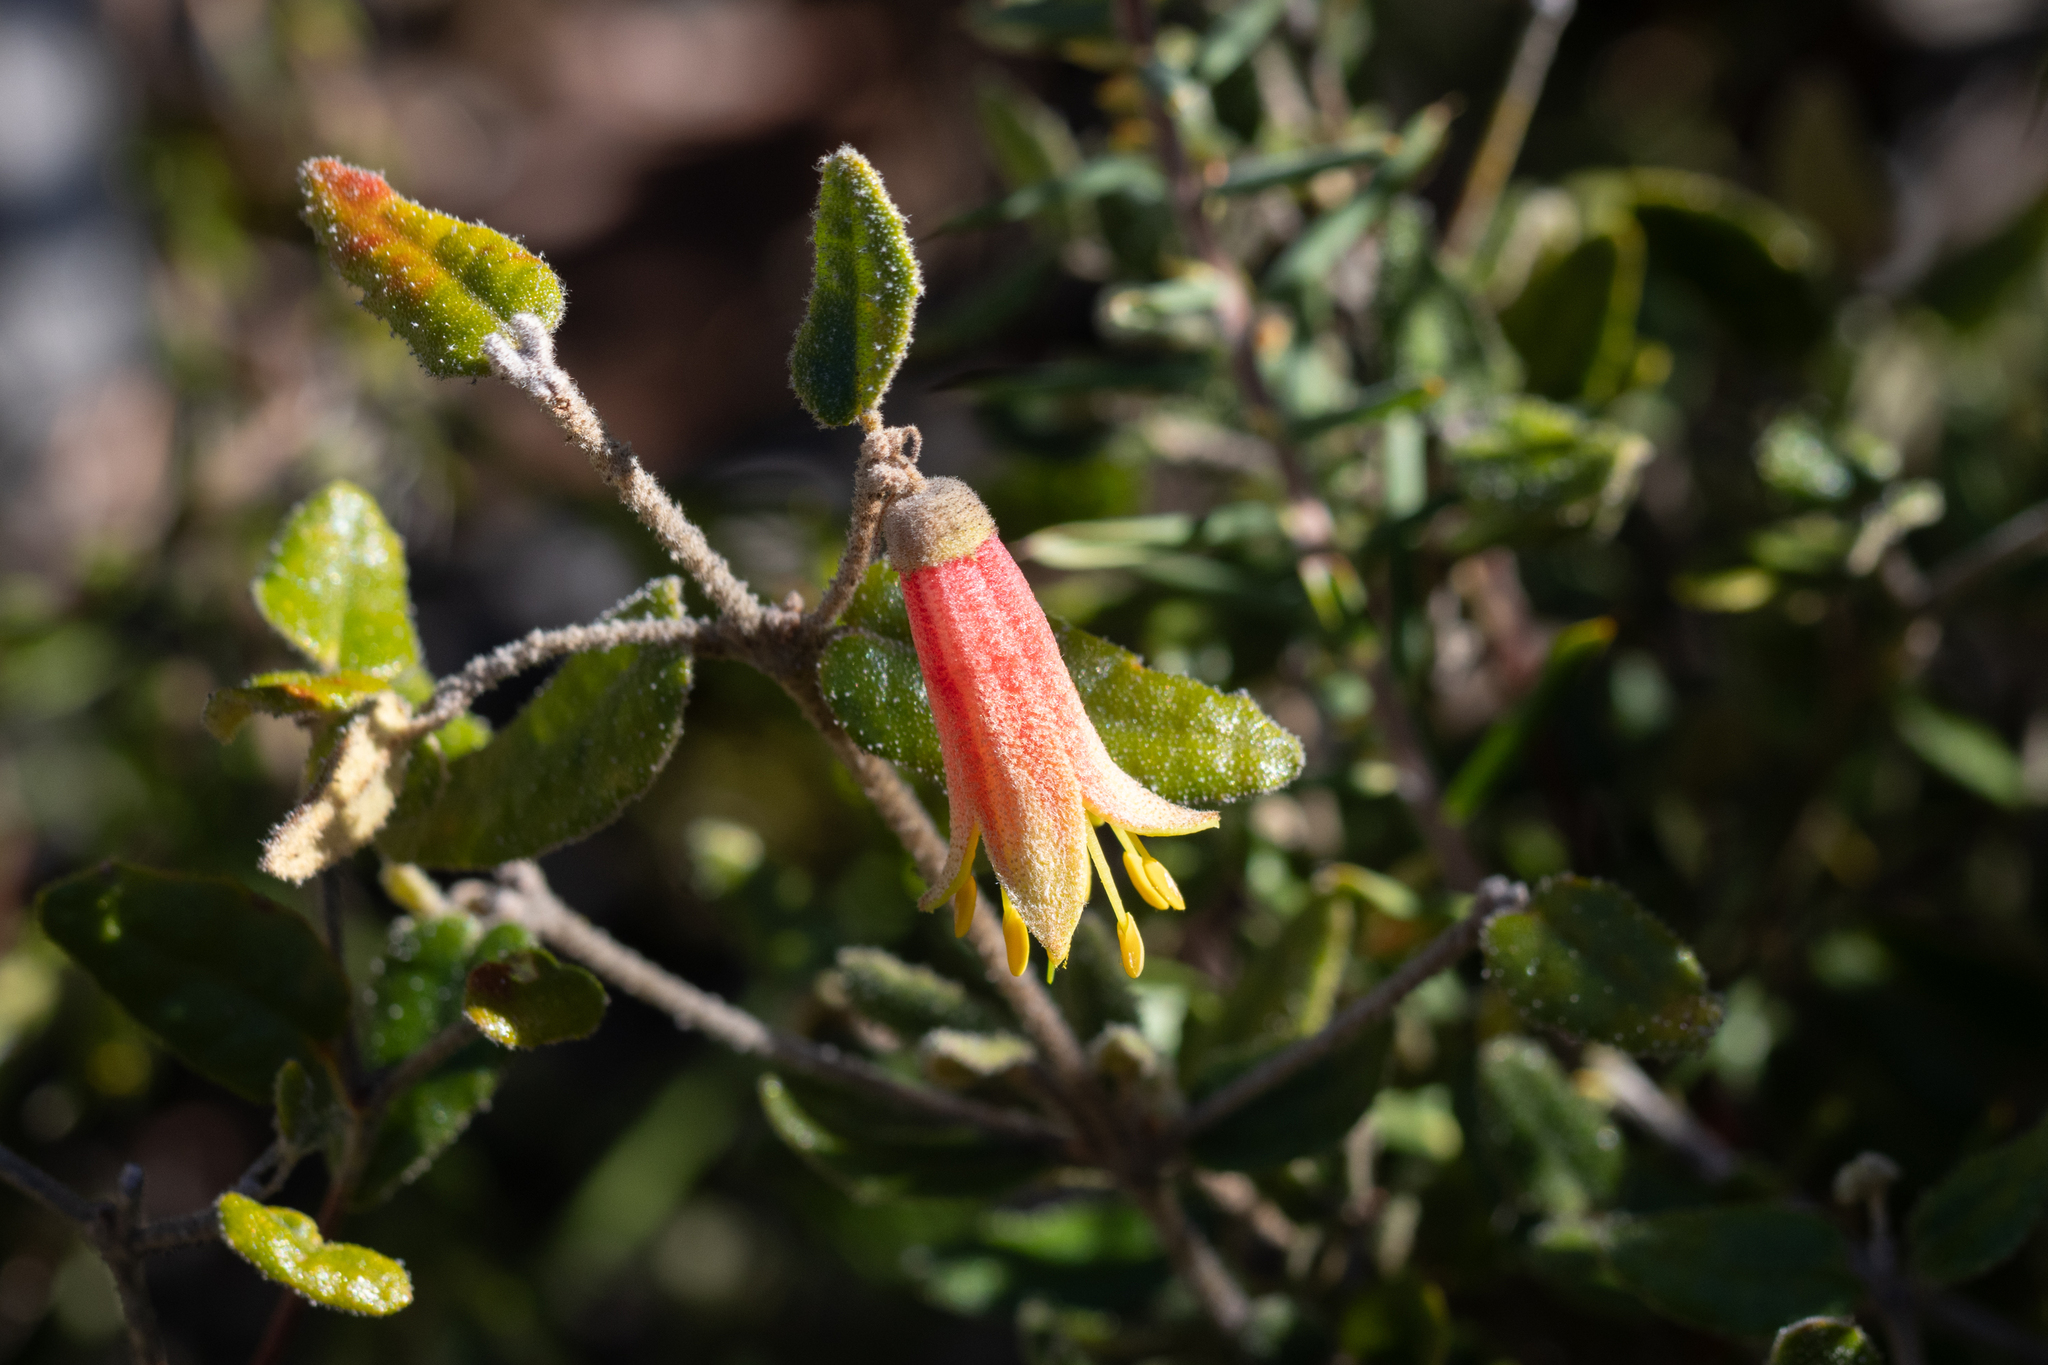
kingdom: Plantae
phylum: Tracheophyta
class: Magnoliopsida
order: Sapindales
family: Rutaceae
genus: Correa
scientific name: Correa reflexa
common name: Common correa
